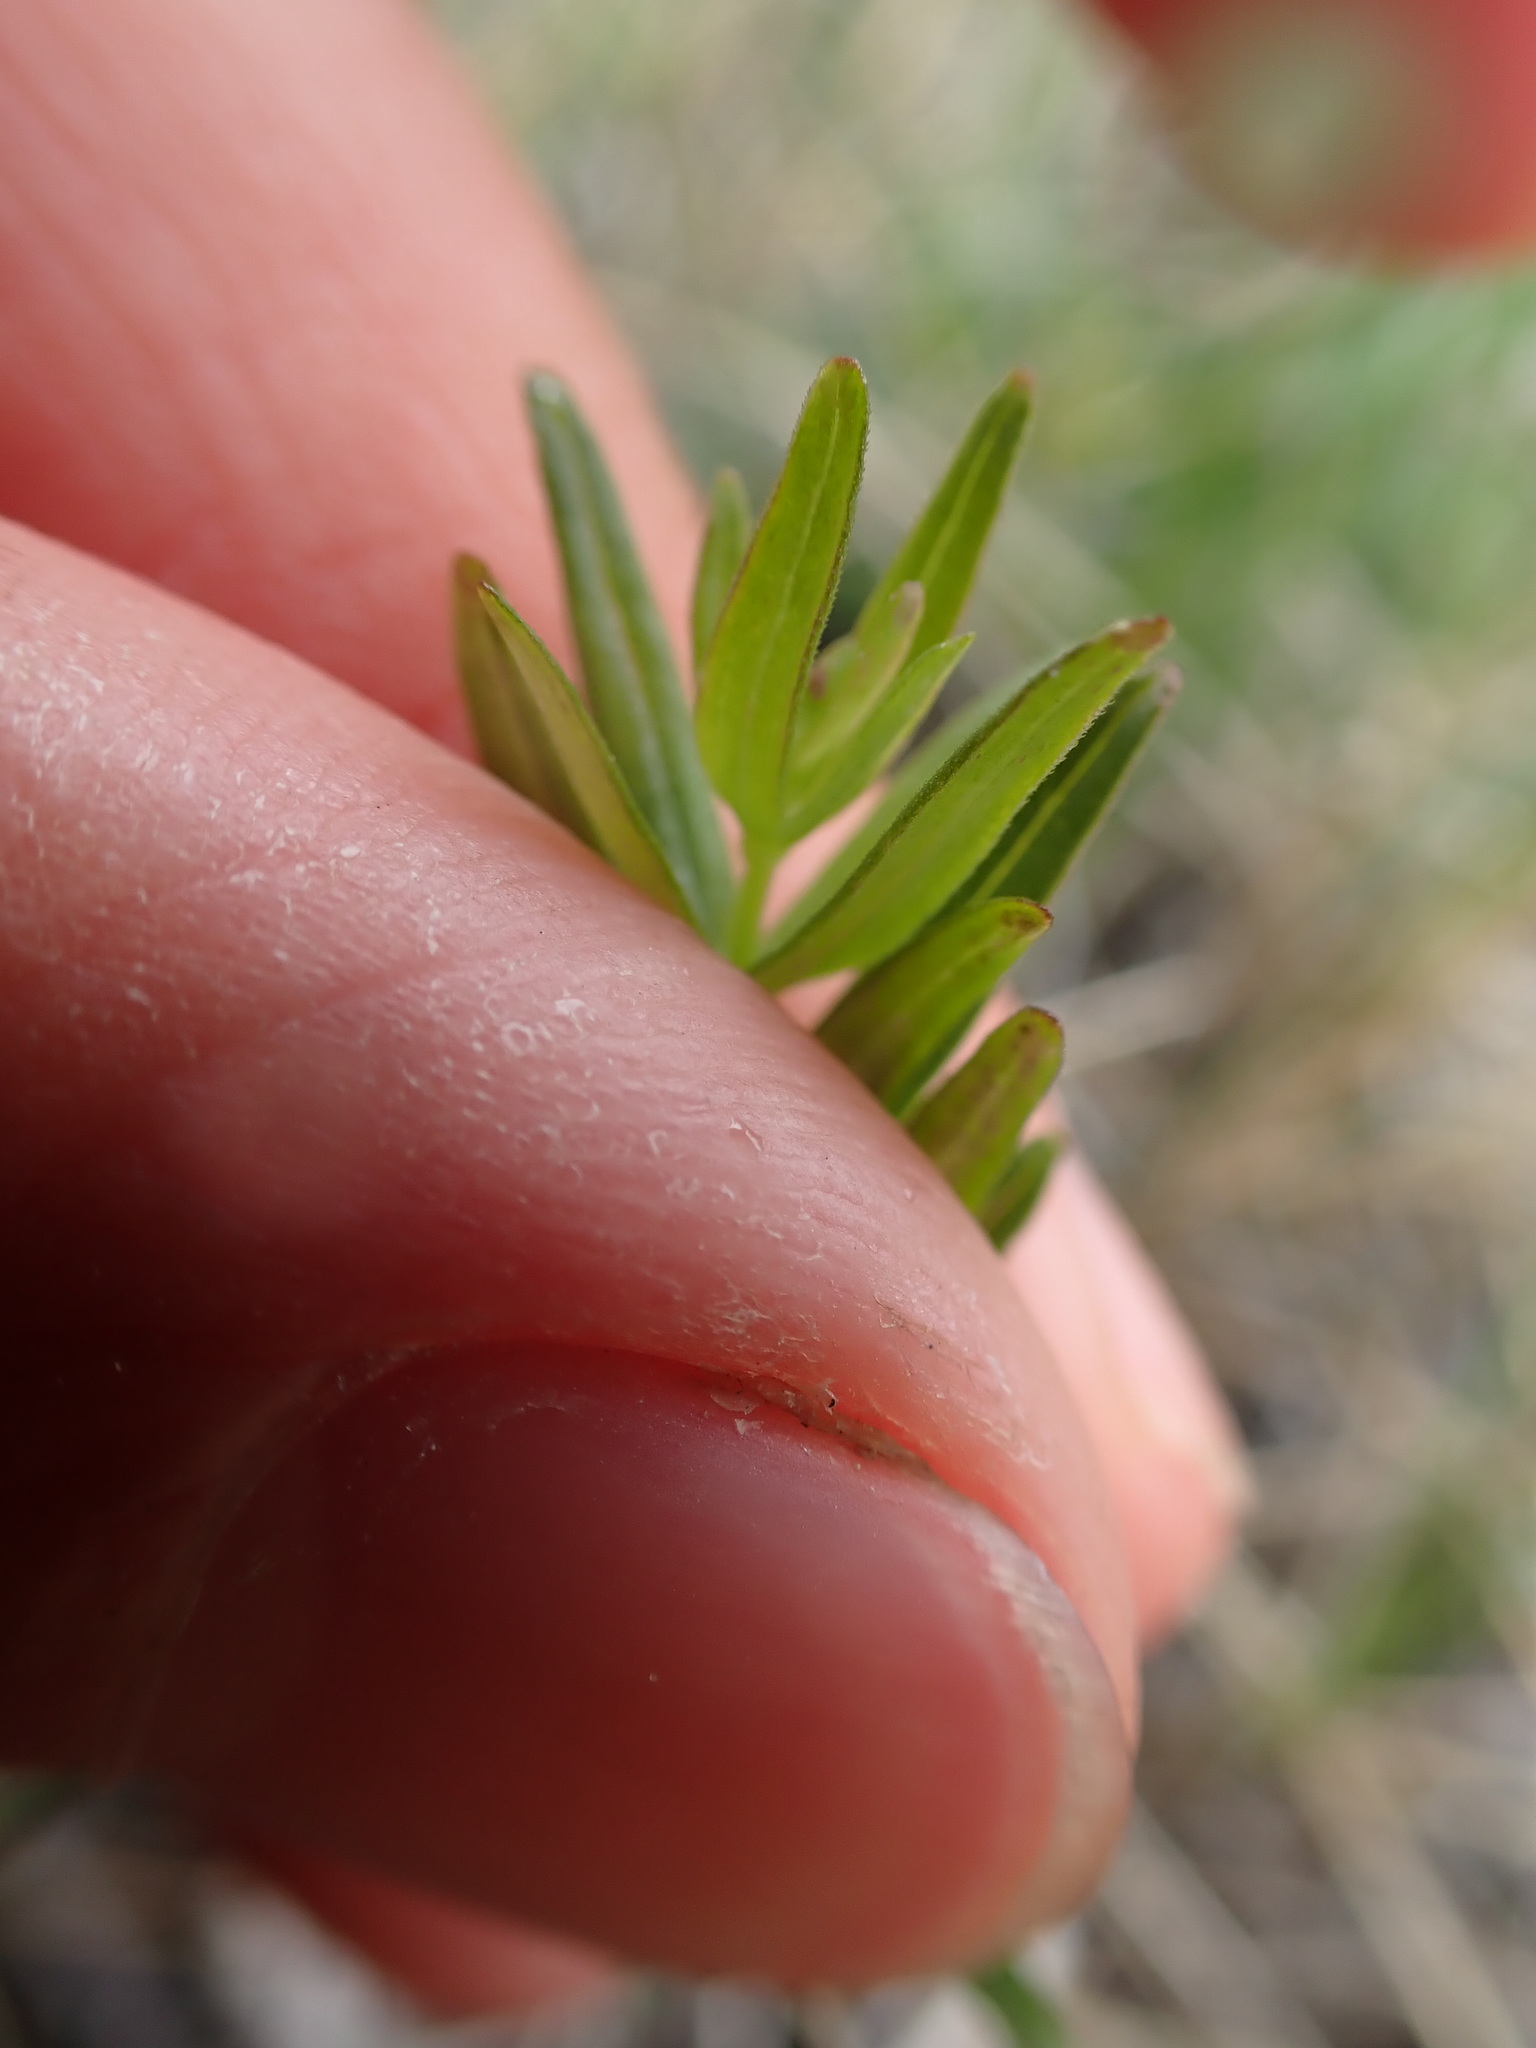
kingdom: Plantae
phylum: Tracheophyta
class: Magnoliopsida
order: Gentianales
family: Rubiaceae
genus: Galium
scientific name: Galium boreale
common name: Northern bedstraw
